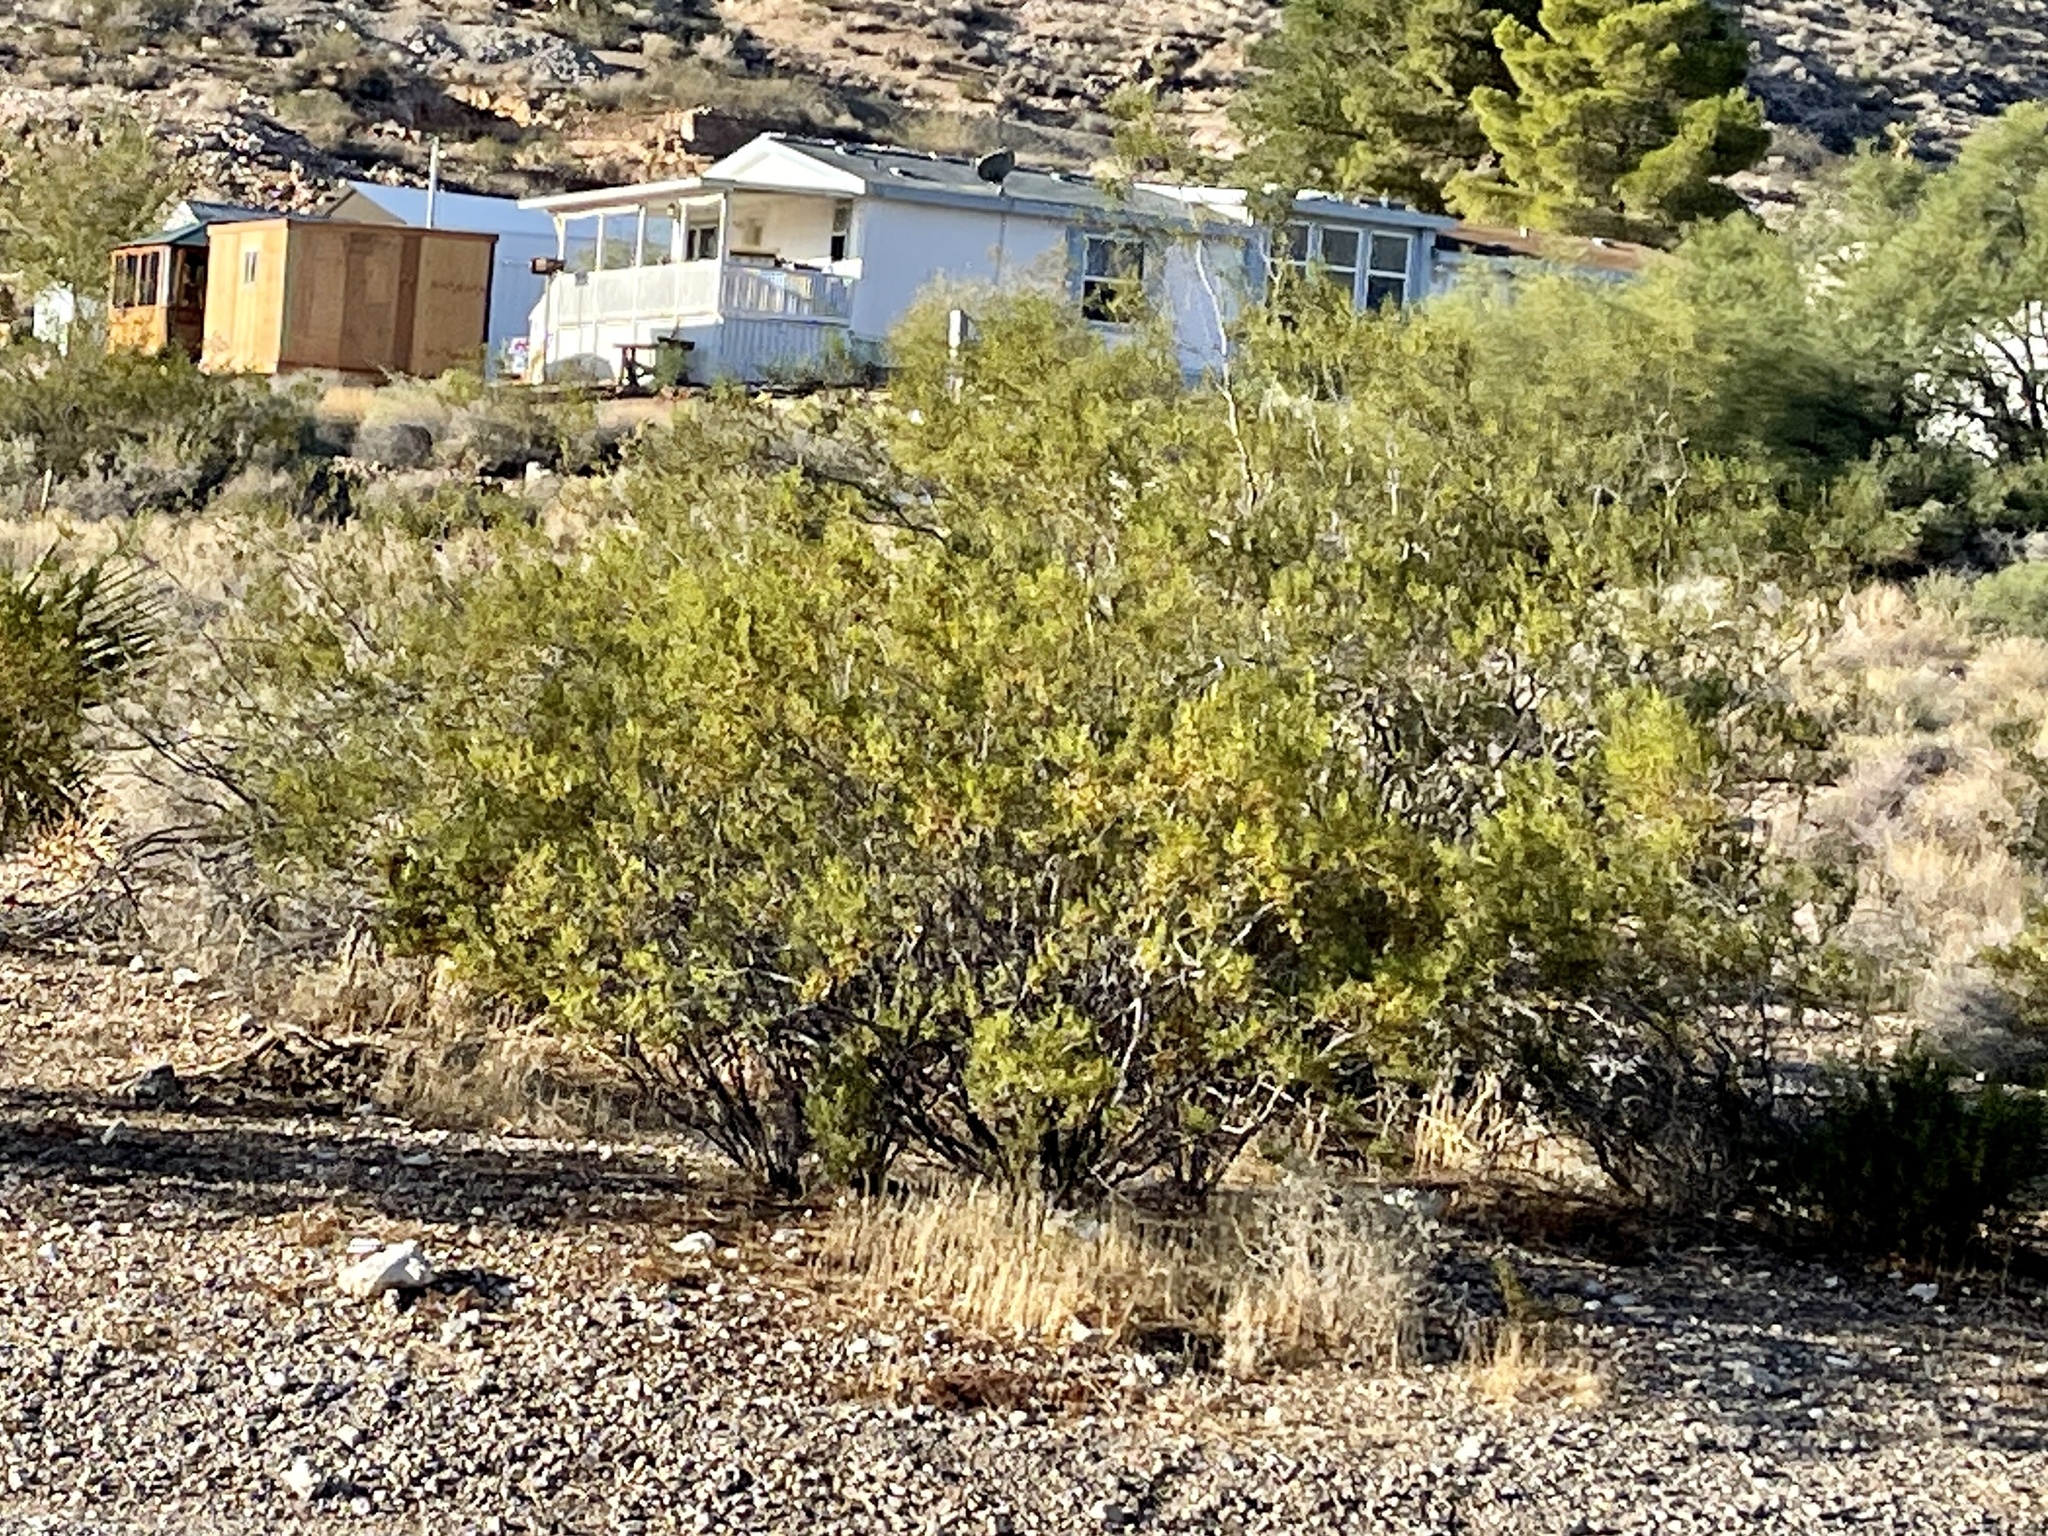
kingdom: Plantae
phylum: Tracheophyta
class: Magnoliopsida
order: Zygophyllales
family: Zygophyllaceae
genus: Larrea
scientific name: Larrea tridentata
